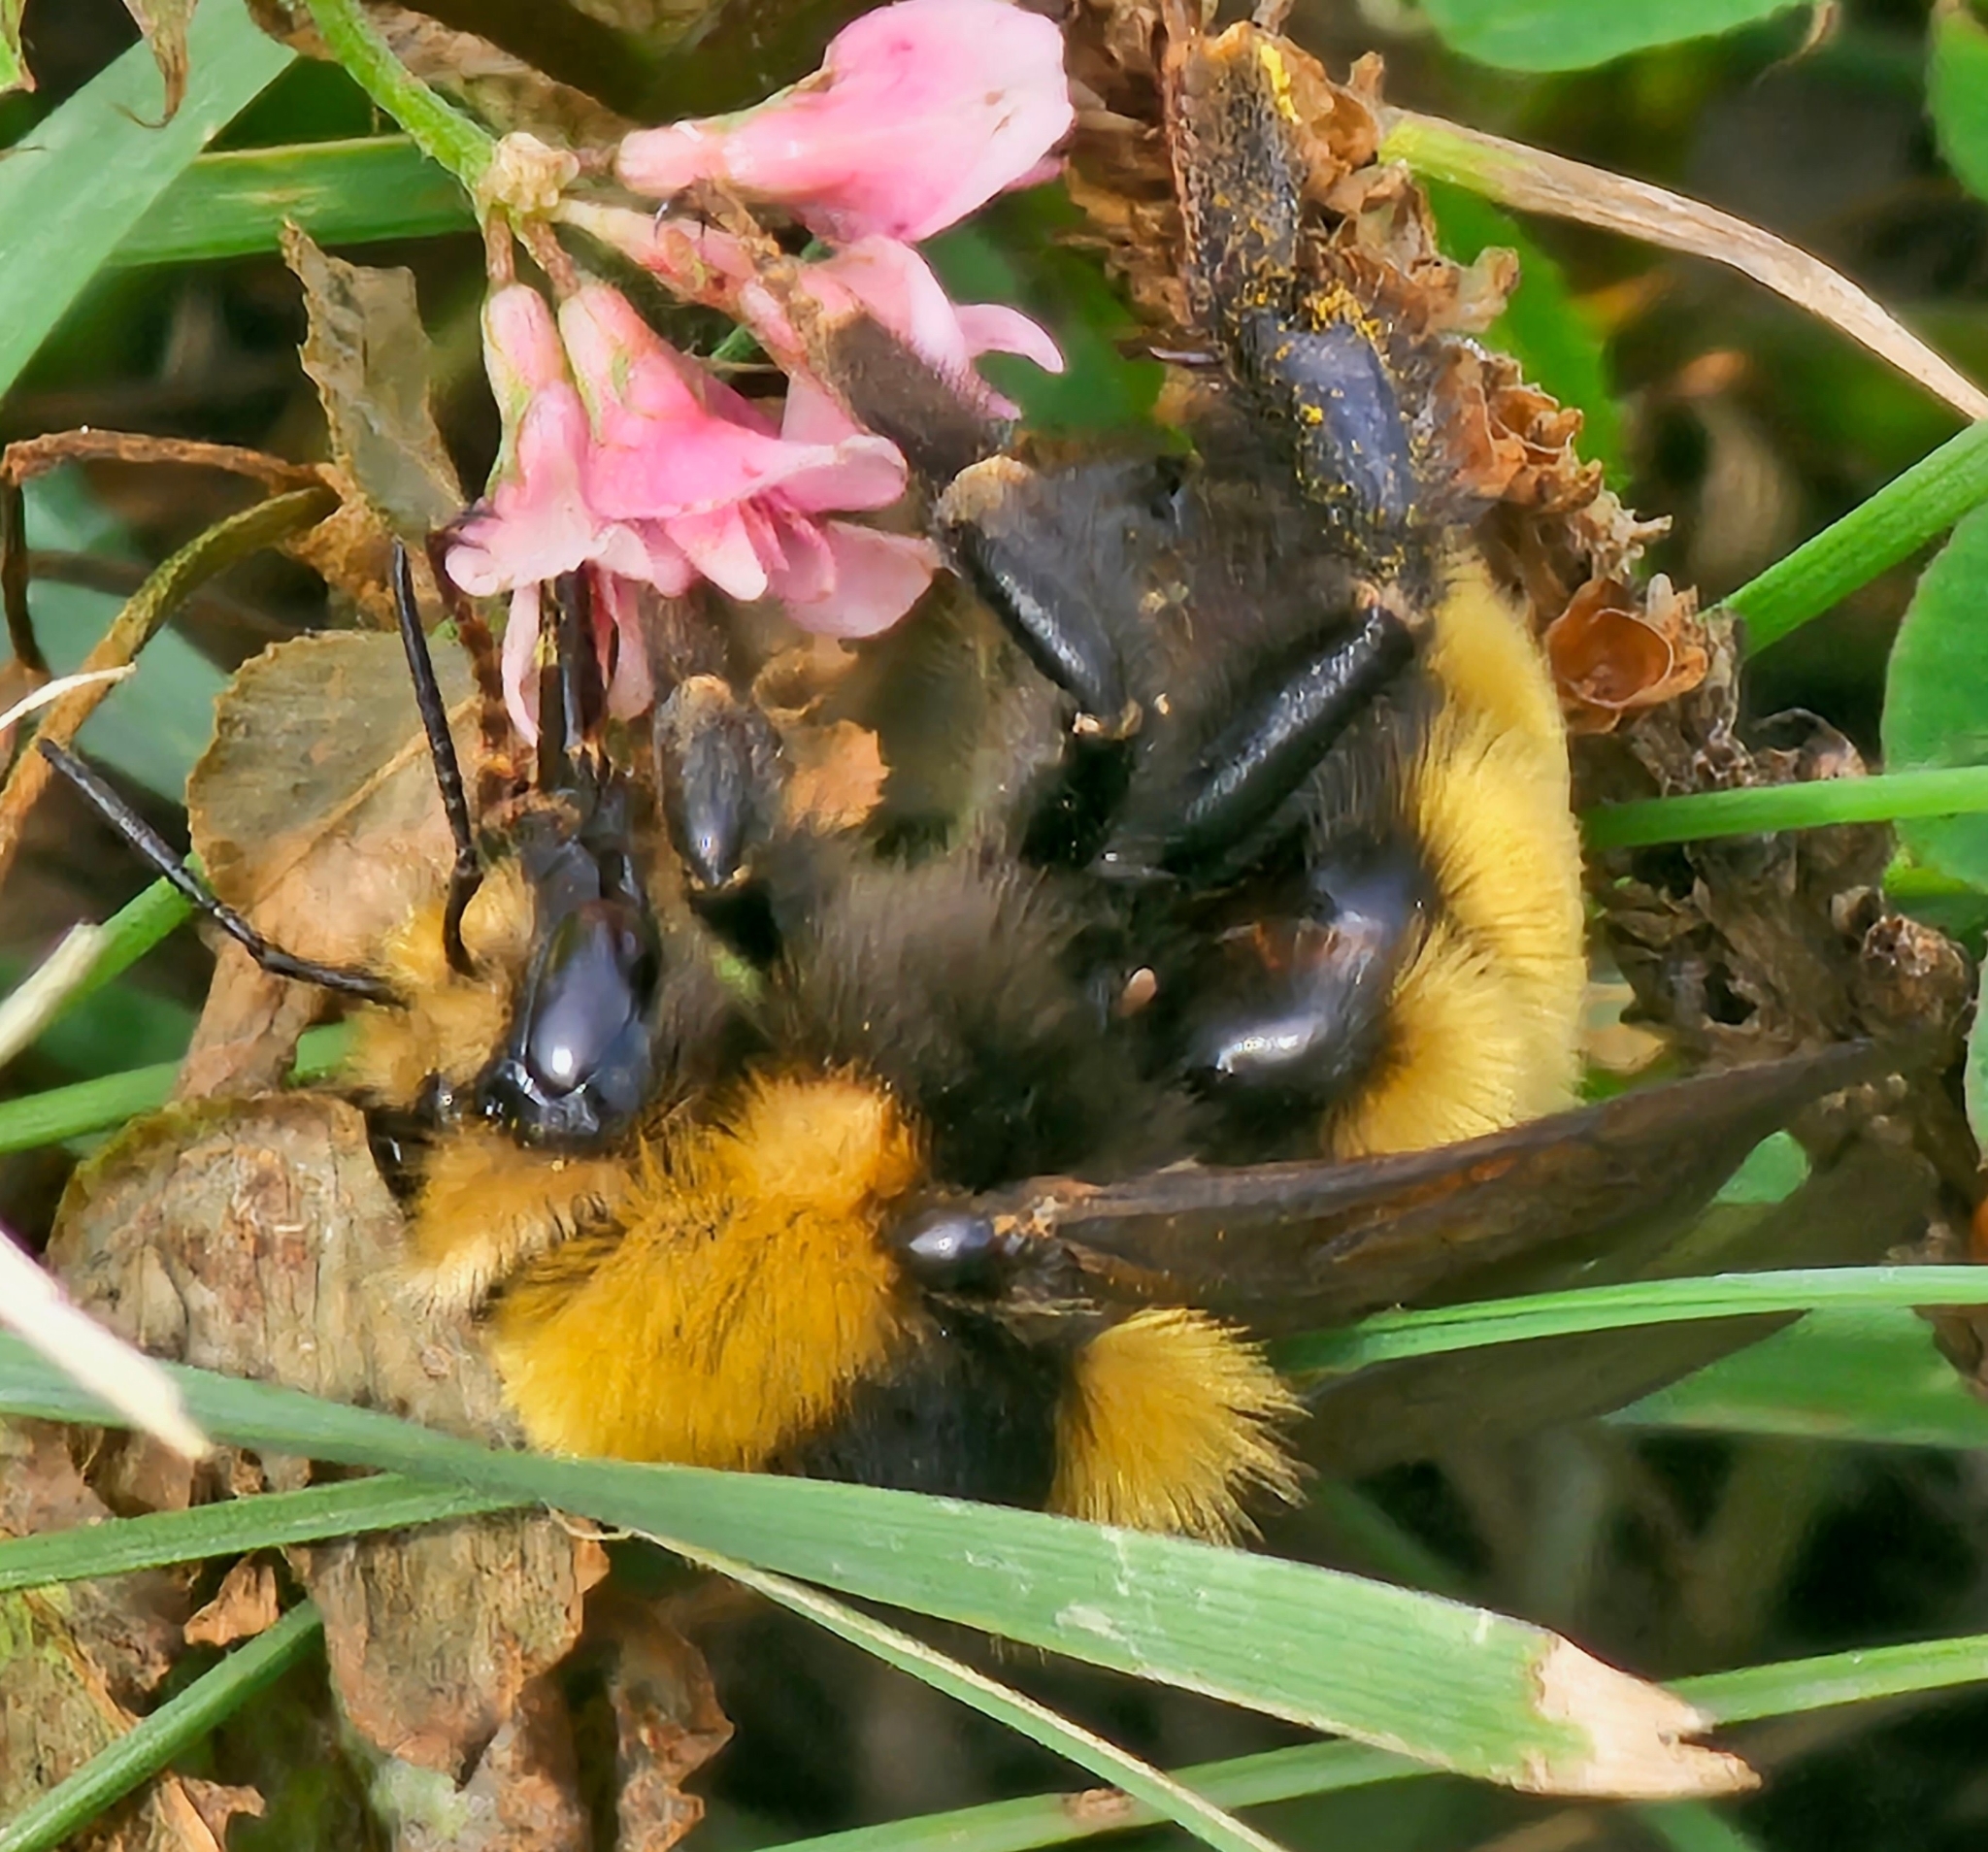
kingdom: Animalia
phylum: Arthropoda
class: Insecta
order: Hymenoptera
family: Apidae
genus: Bombus
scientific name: Bombus borealis
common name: Northern amber bumble bee
